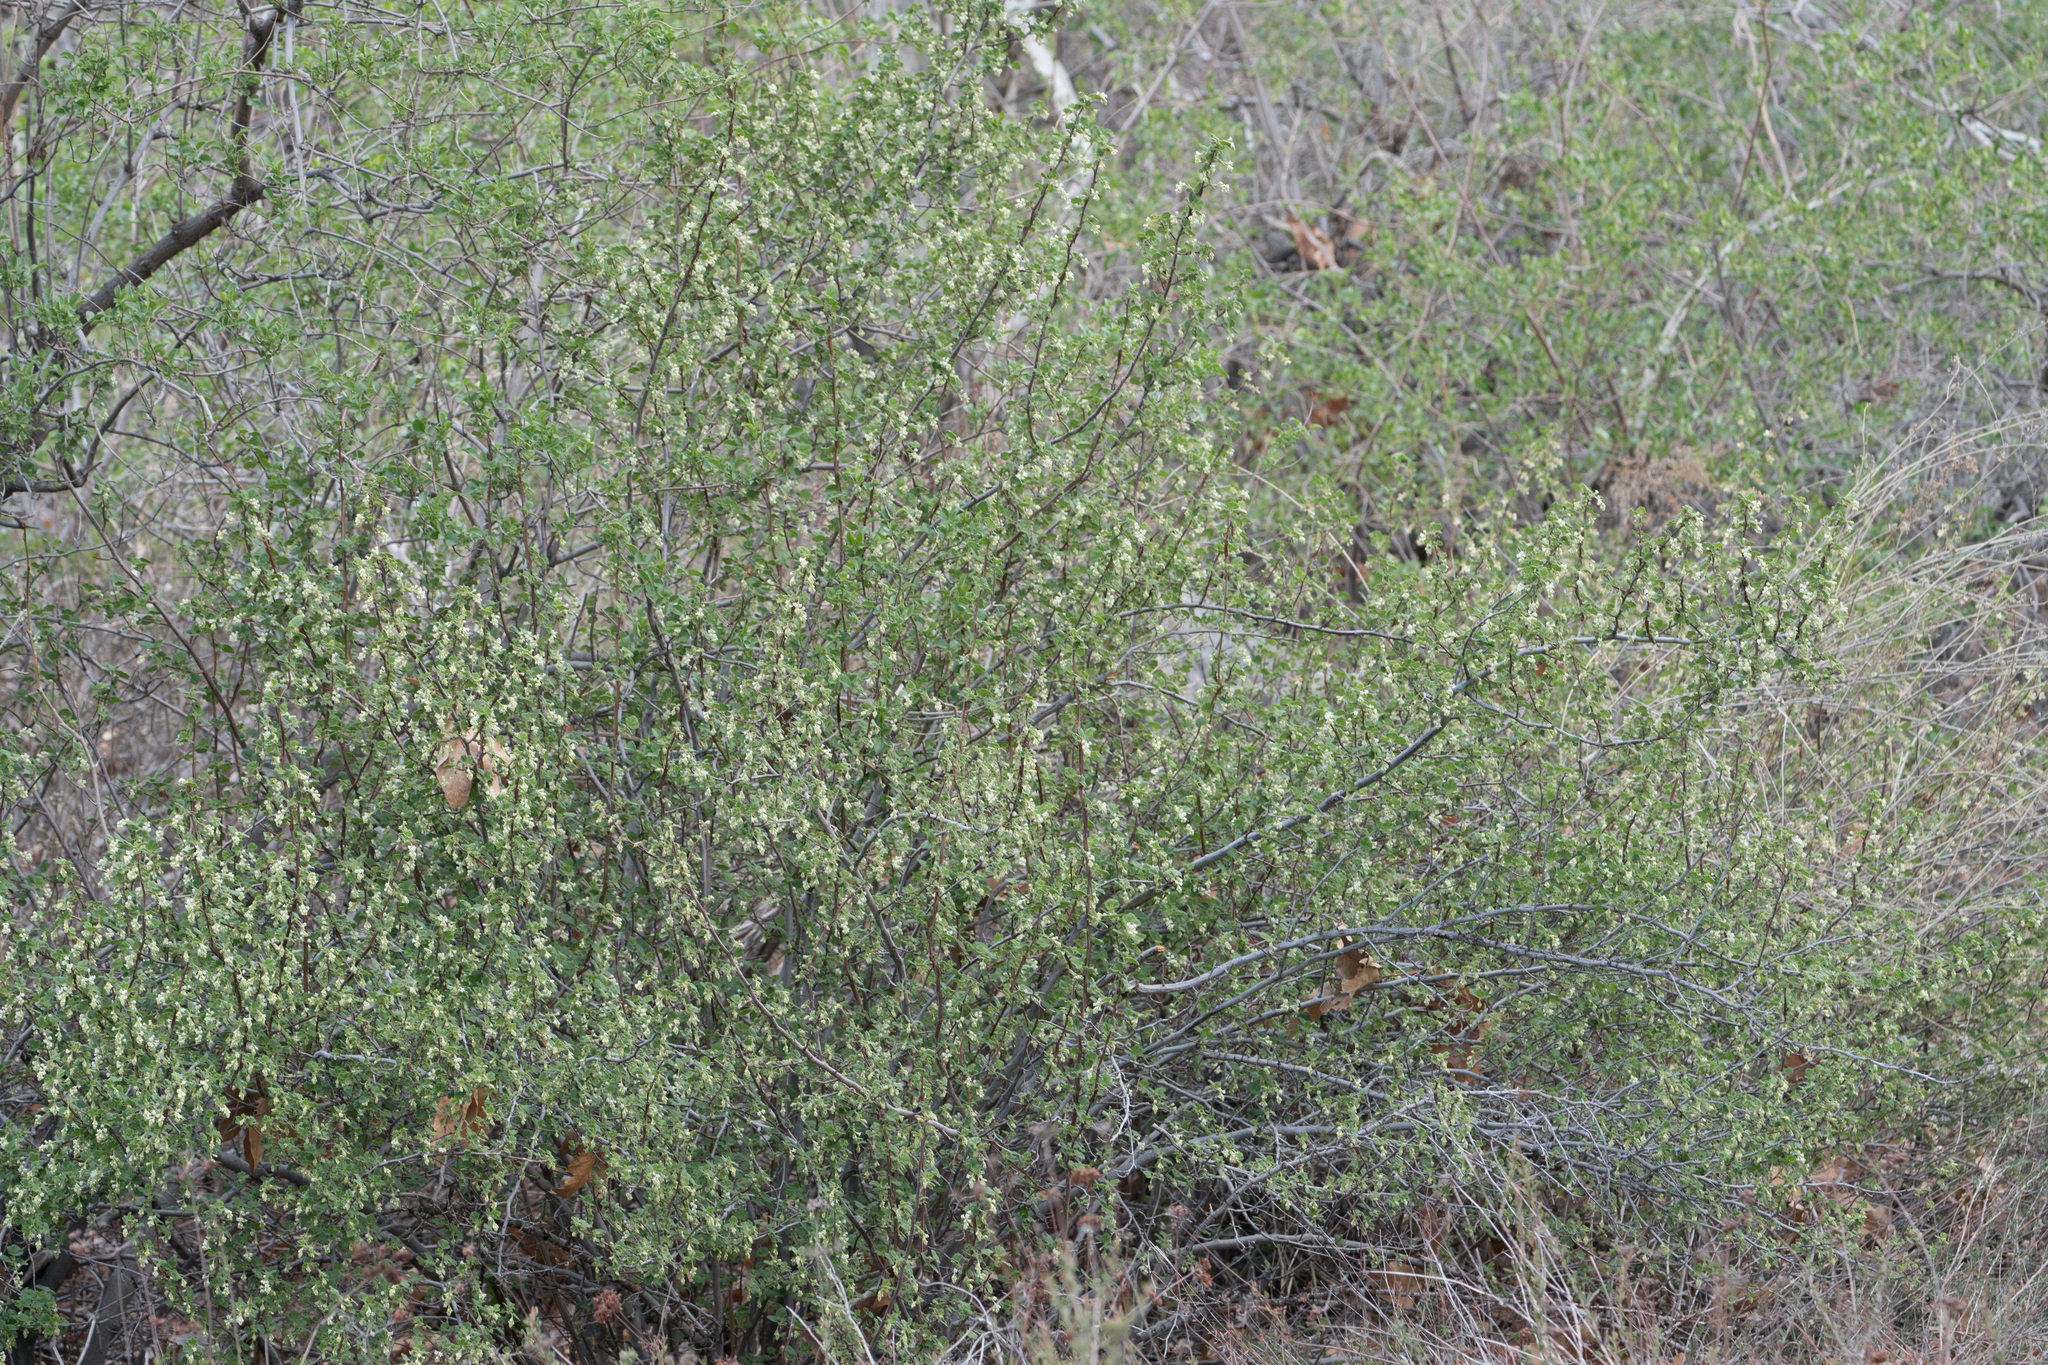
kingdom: Plantae
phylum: Tracheophyta
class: Magnoliopsida
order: Saxifragales
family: Grossulariaceae
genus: Ribes
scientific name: Ribes indecorum
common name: White-flower currant
